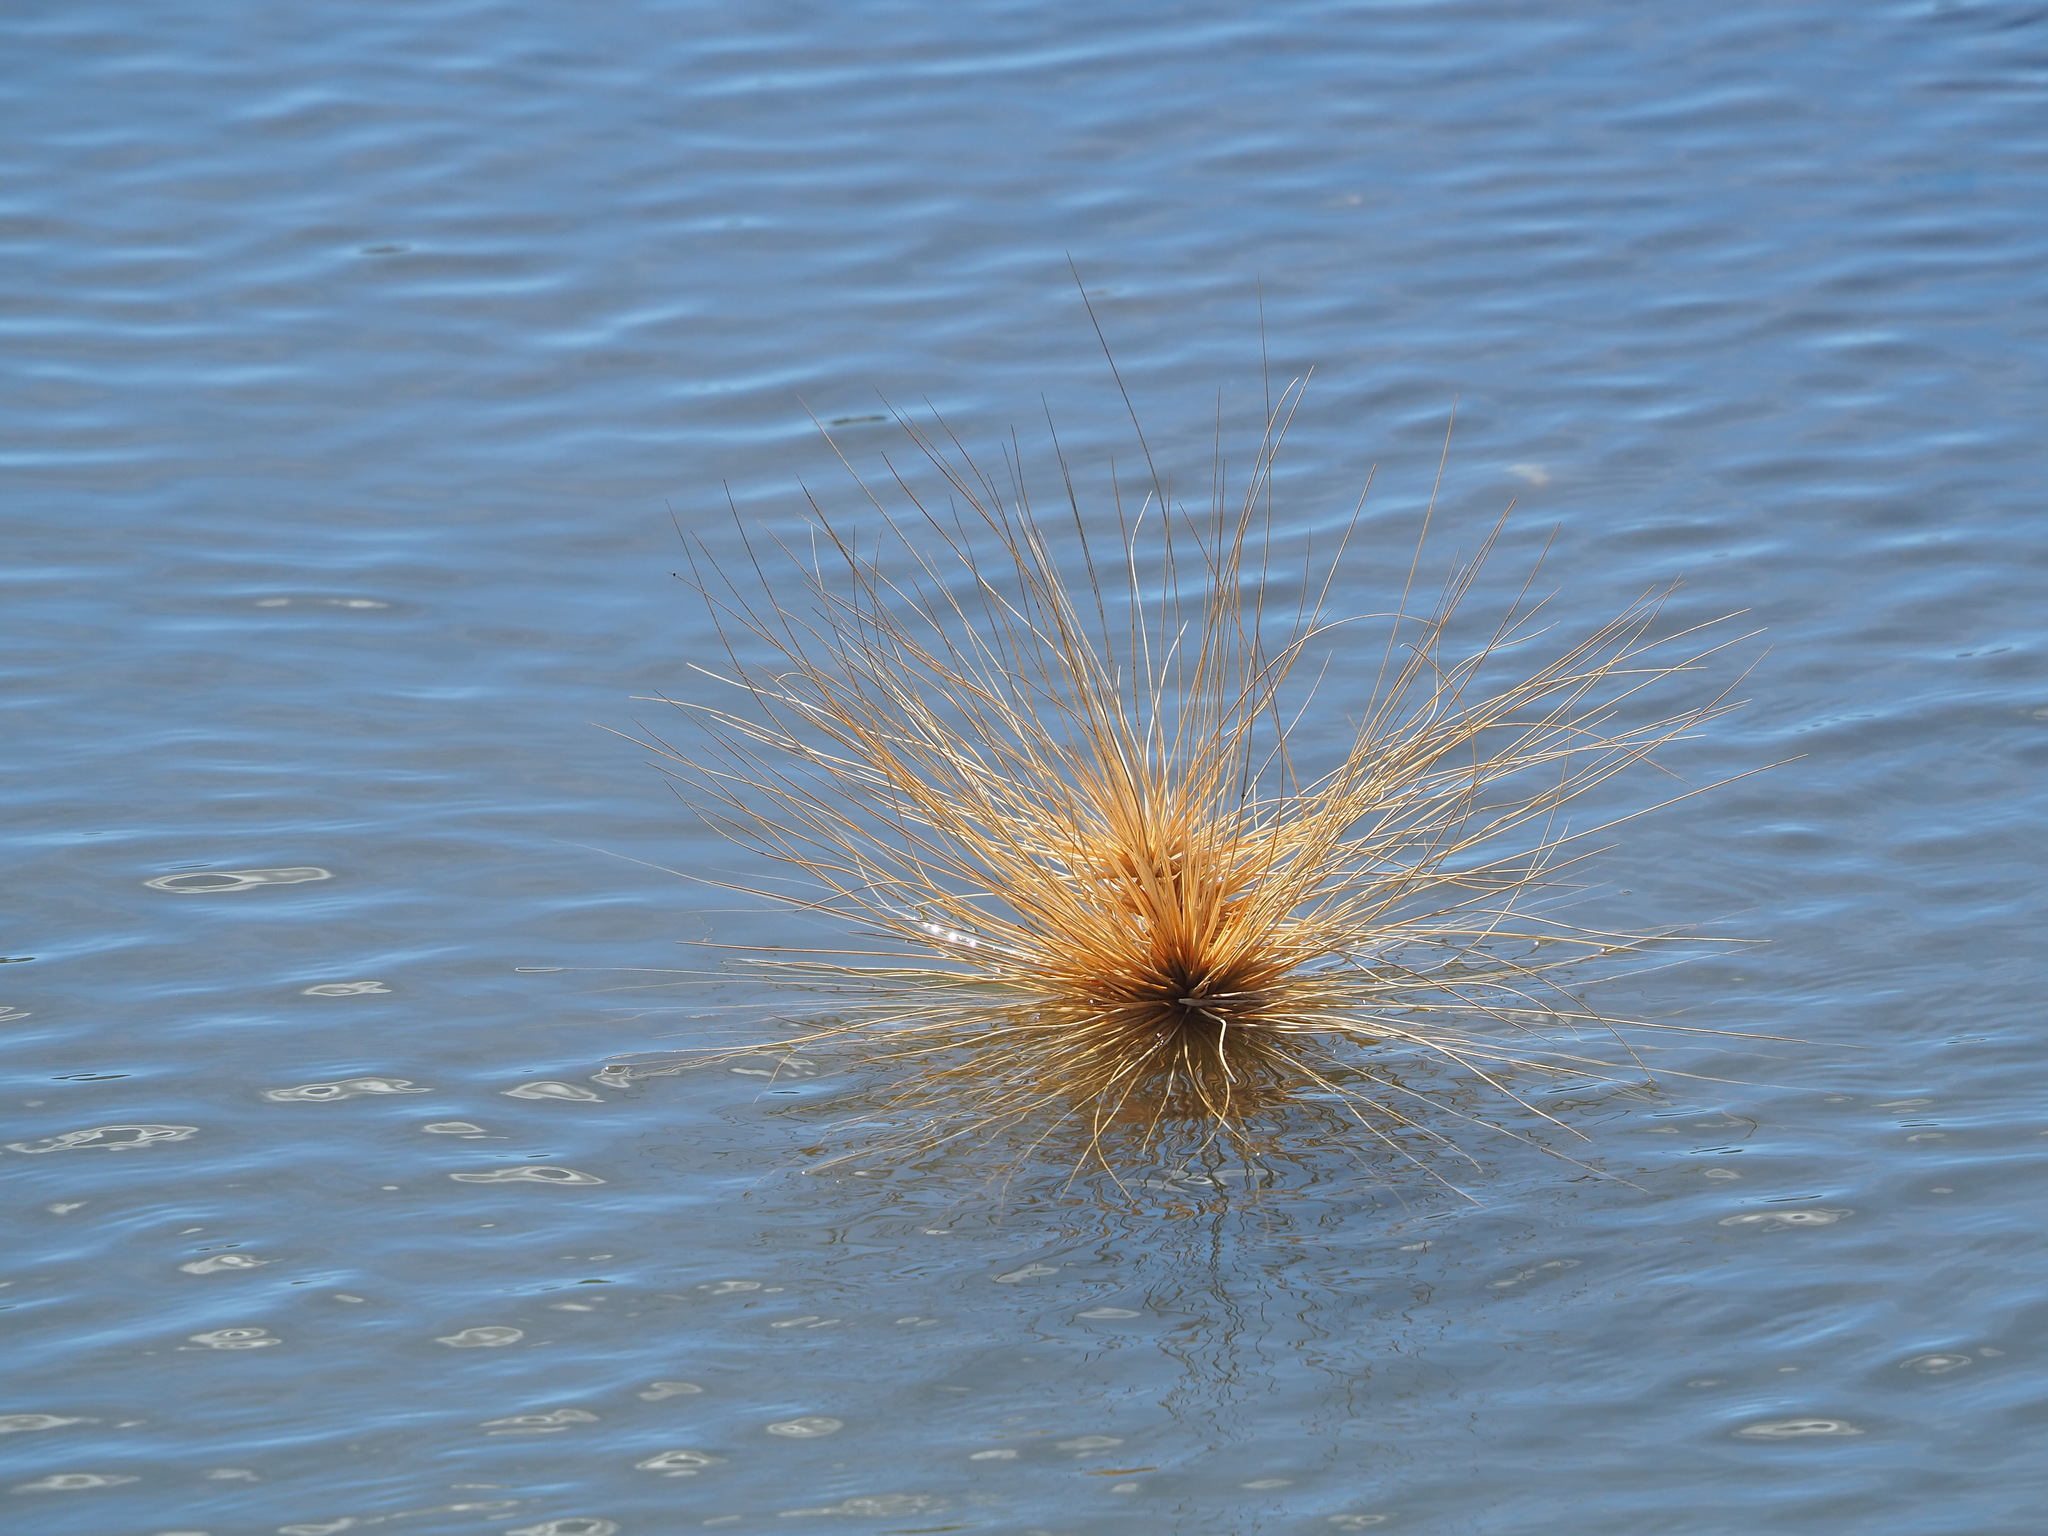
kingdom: Plantae
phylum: Tracheophyta
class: Liliopsida
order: Poales
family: Poaceae
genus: Spinifex
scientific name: Spinifex littoreus
